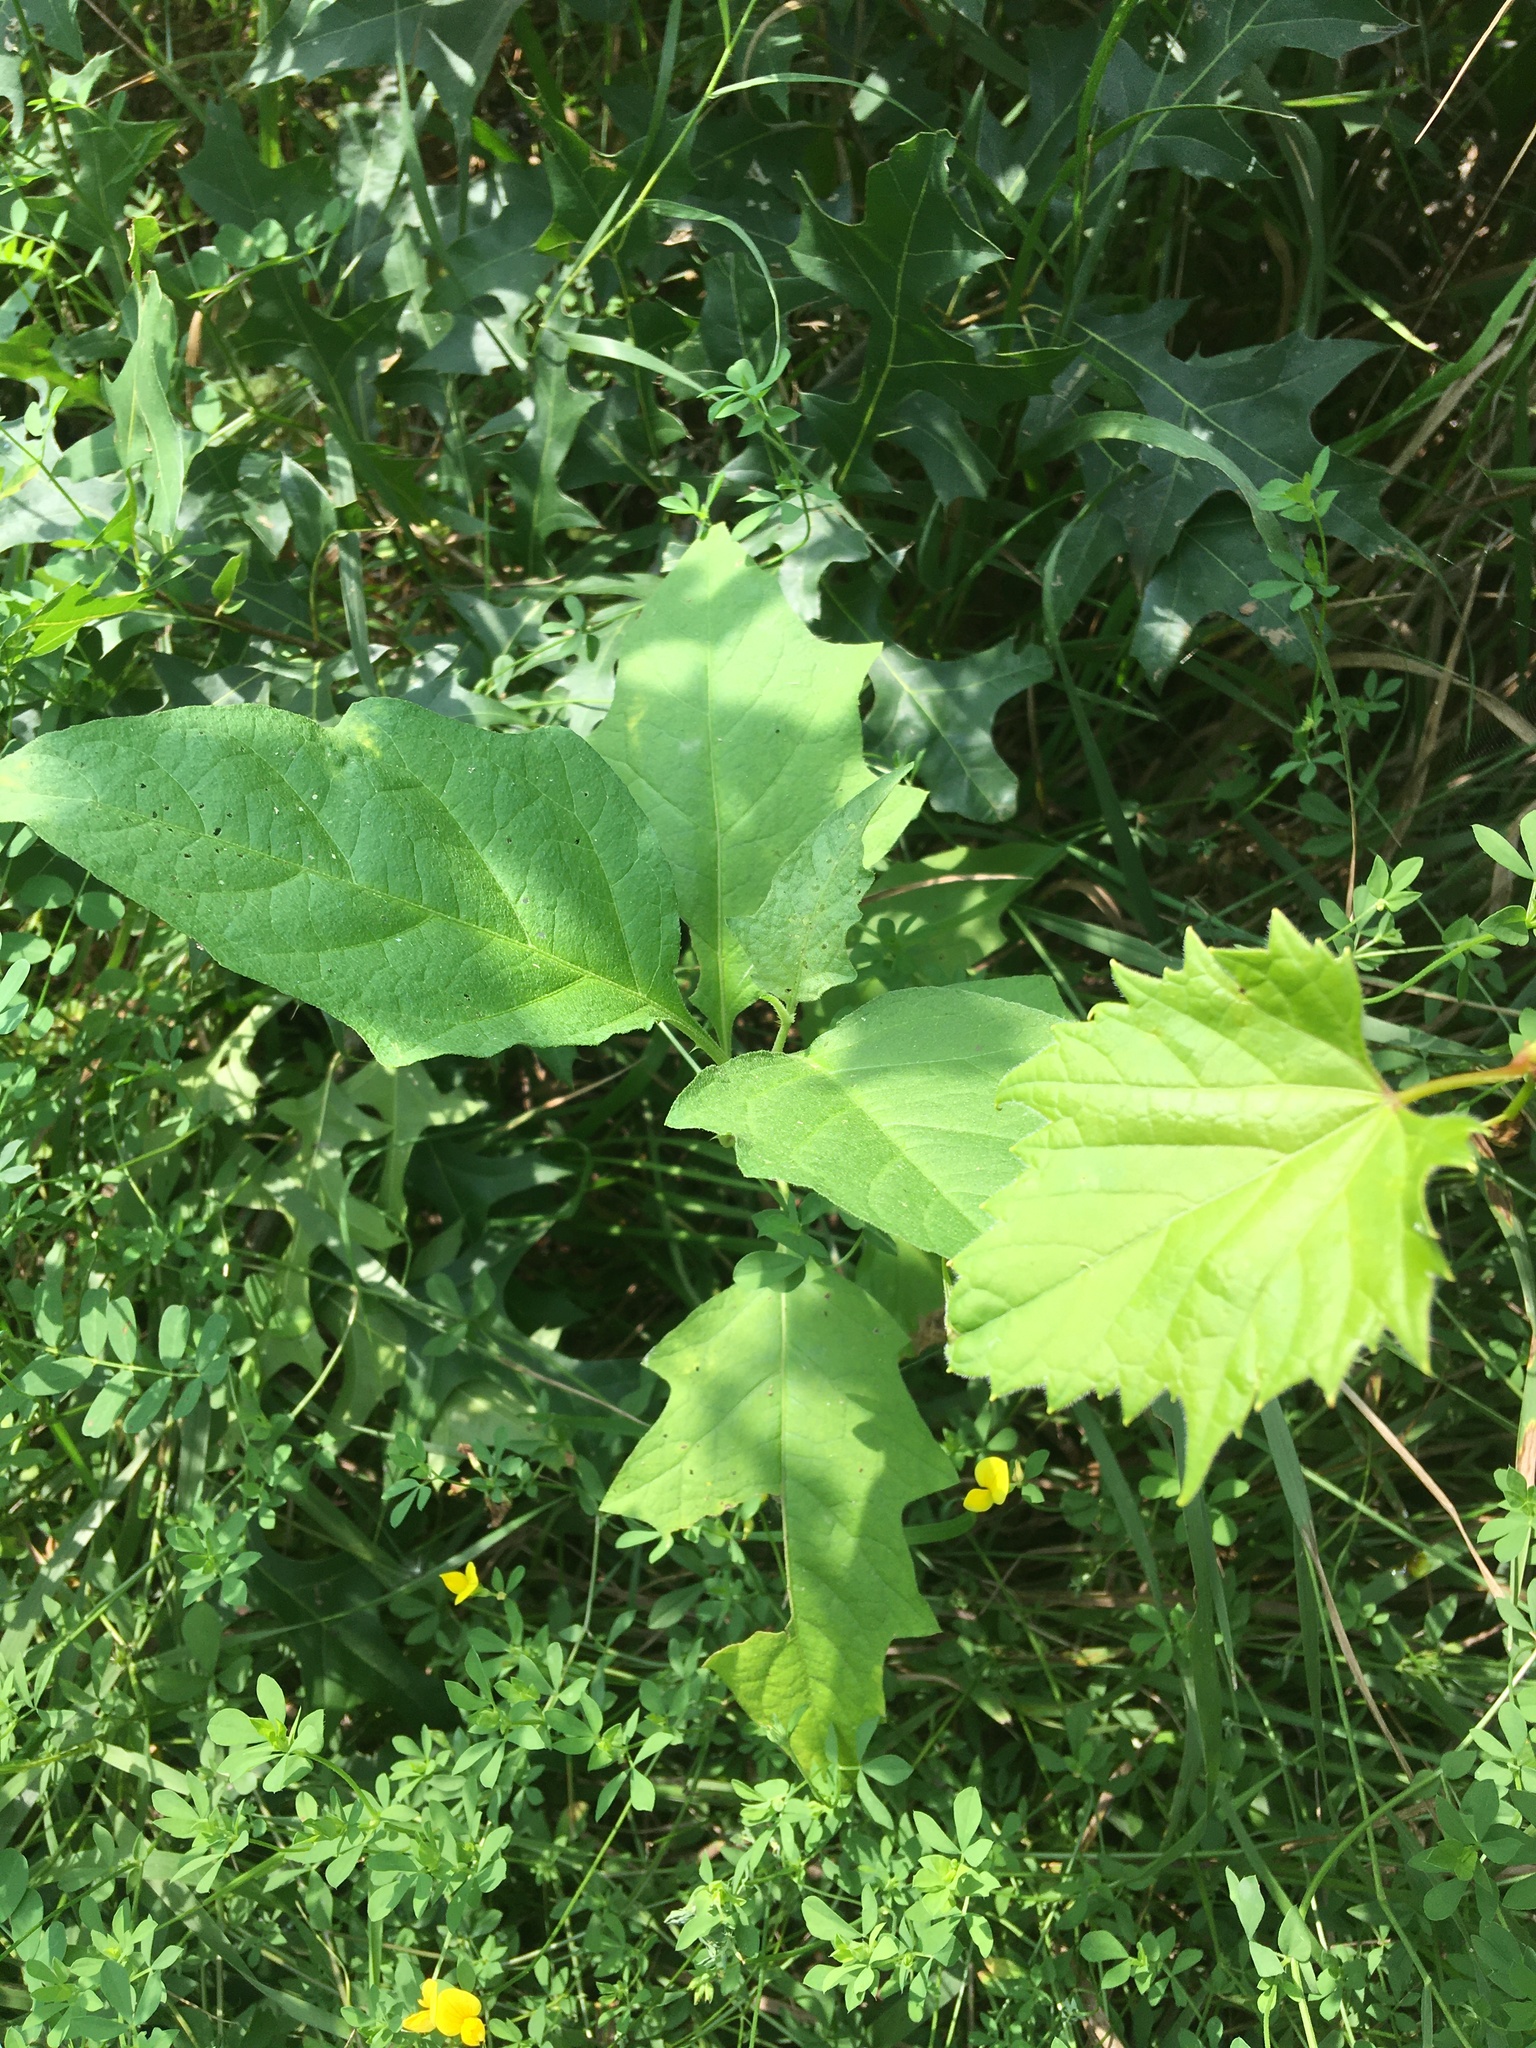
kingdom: Plantae
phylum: Tracheophyta
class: Magnoliopsida
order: Solanales
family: Solanaceae
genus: Solanum
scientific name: Solanum carolinense
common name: Horse-nettle
